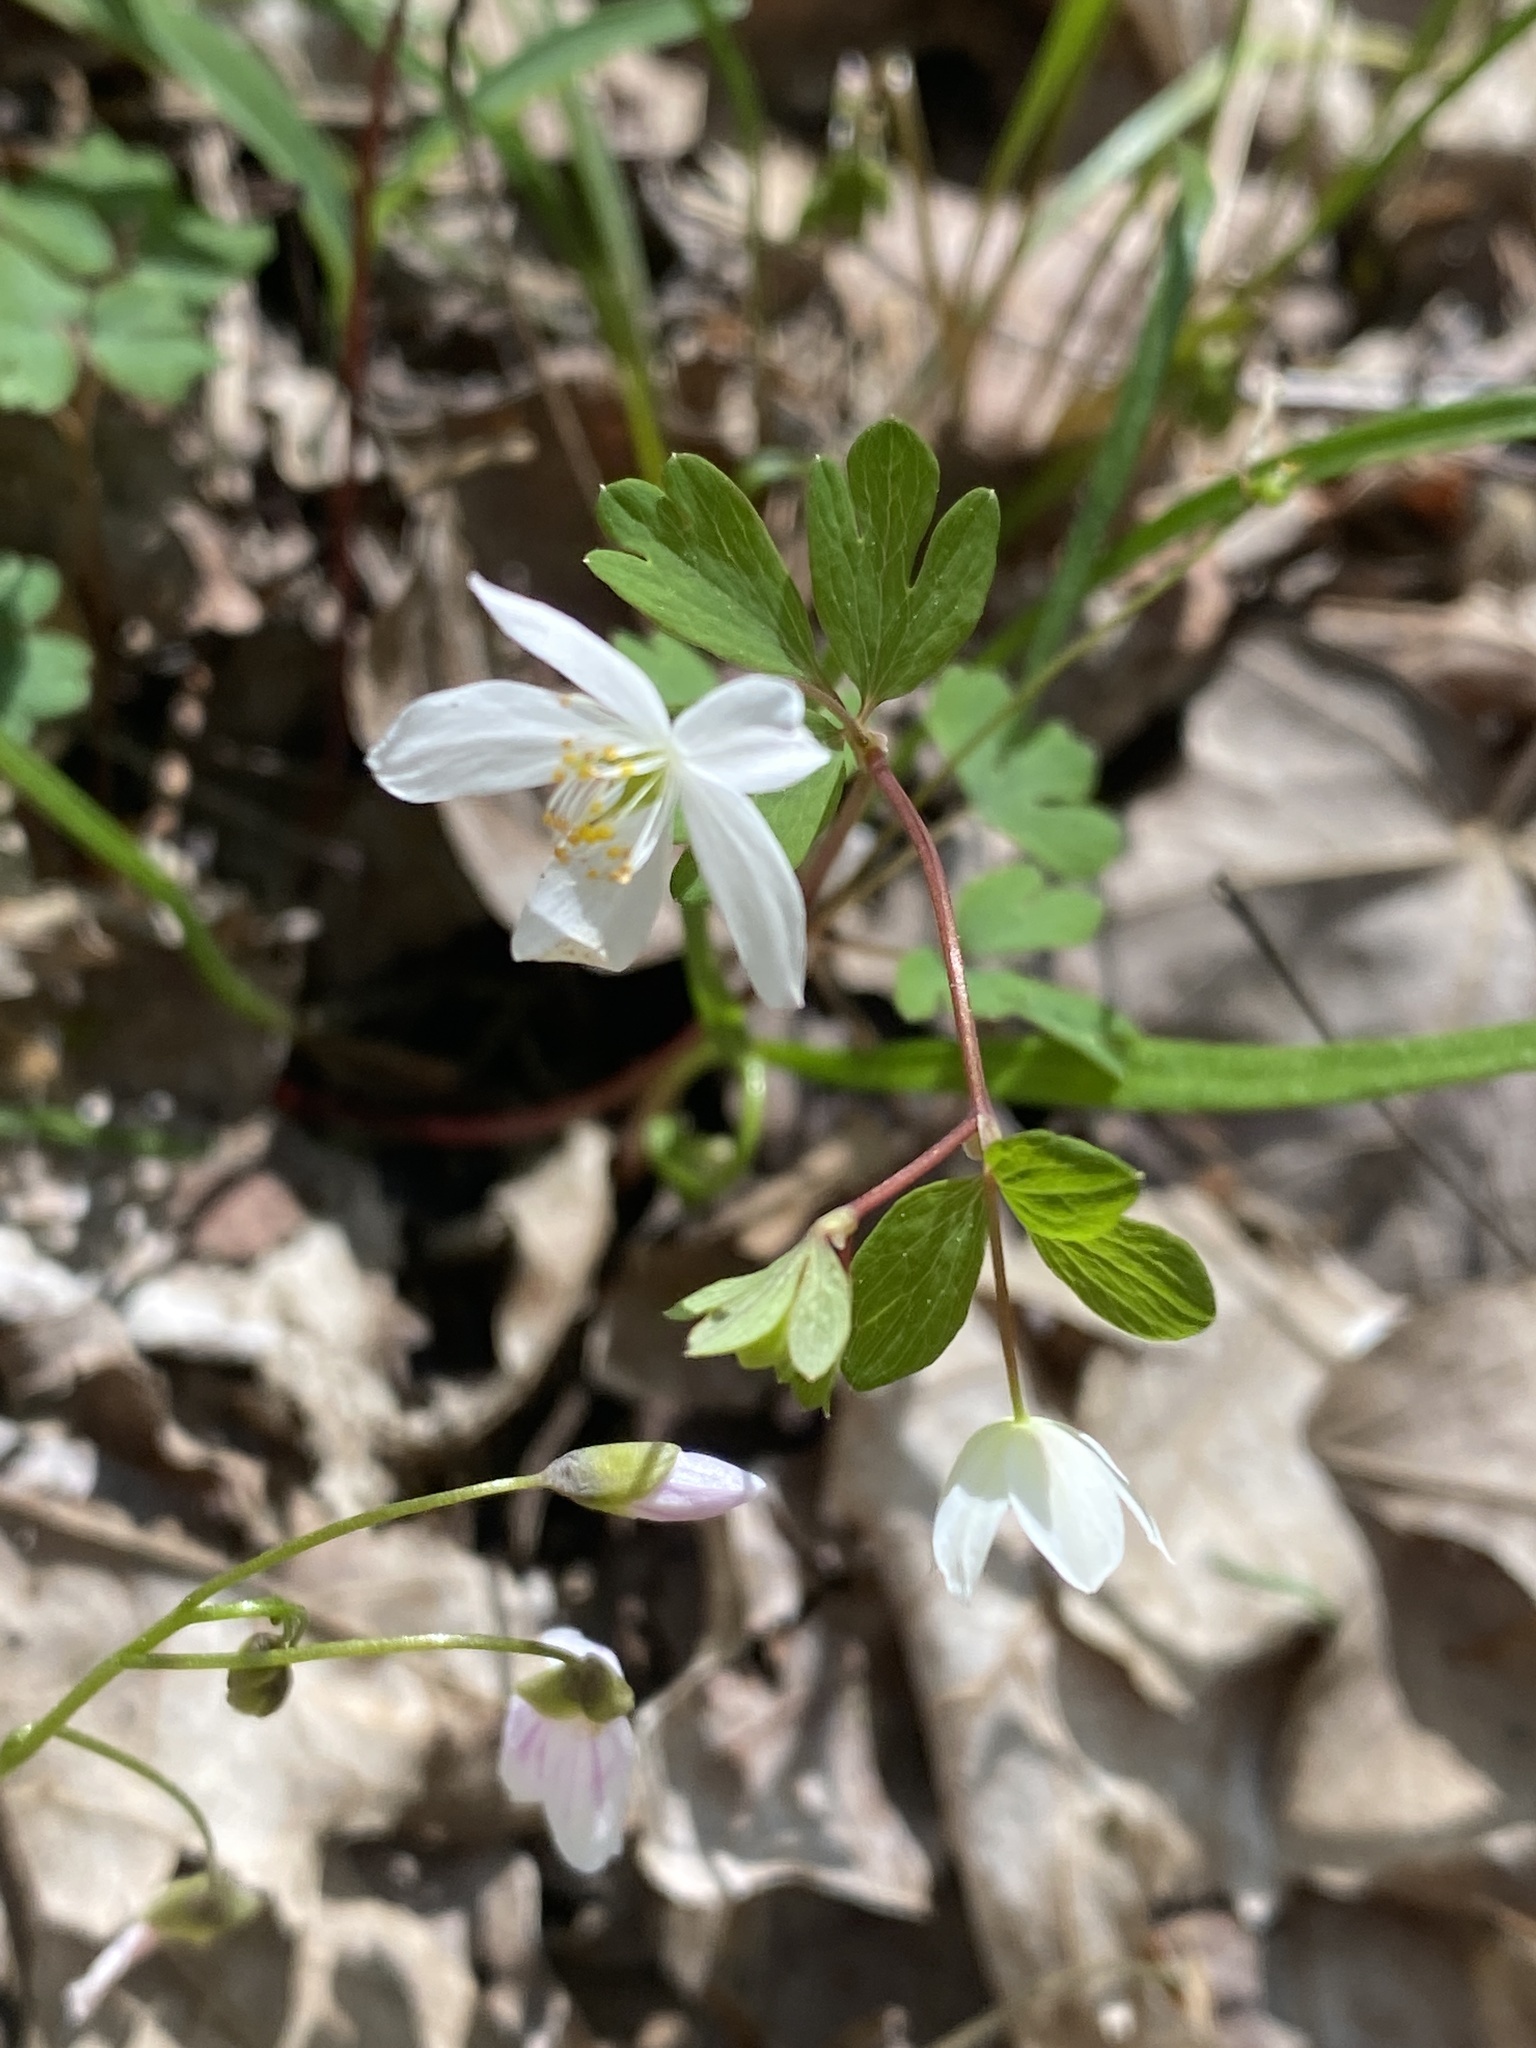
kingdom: Plantae
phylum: Tracheophyta
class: Magnoliopsida
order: Ranunculales
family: Ranunculaceae
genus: Enemion
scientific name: Enemion biternatum
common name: Eastern false rue-anemone
